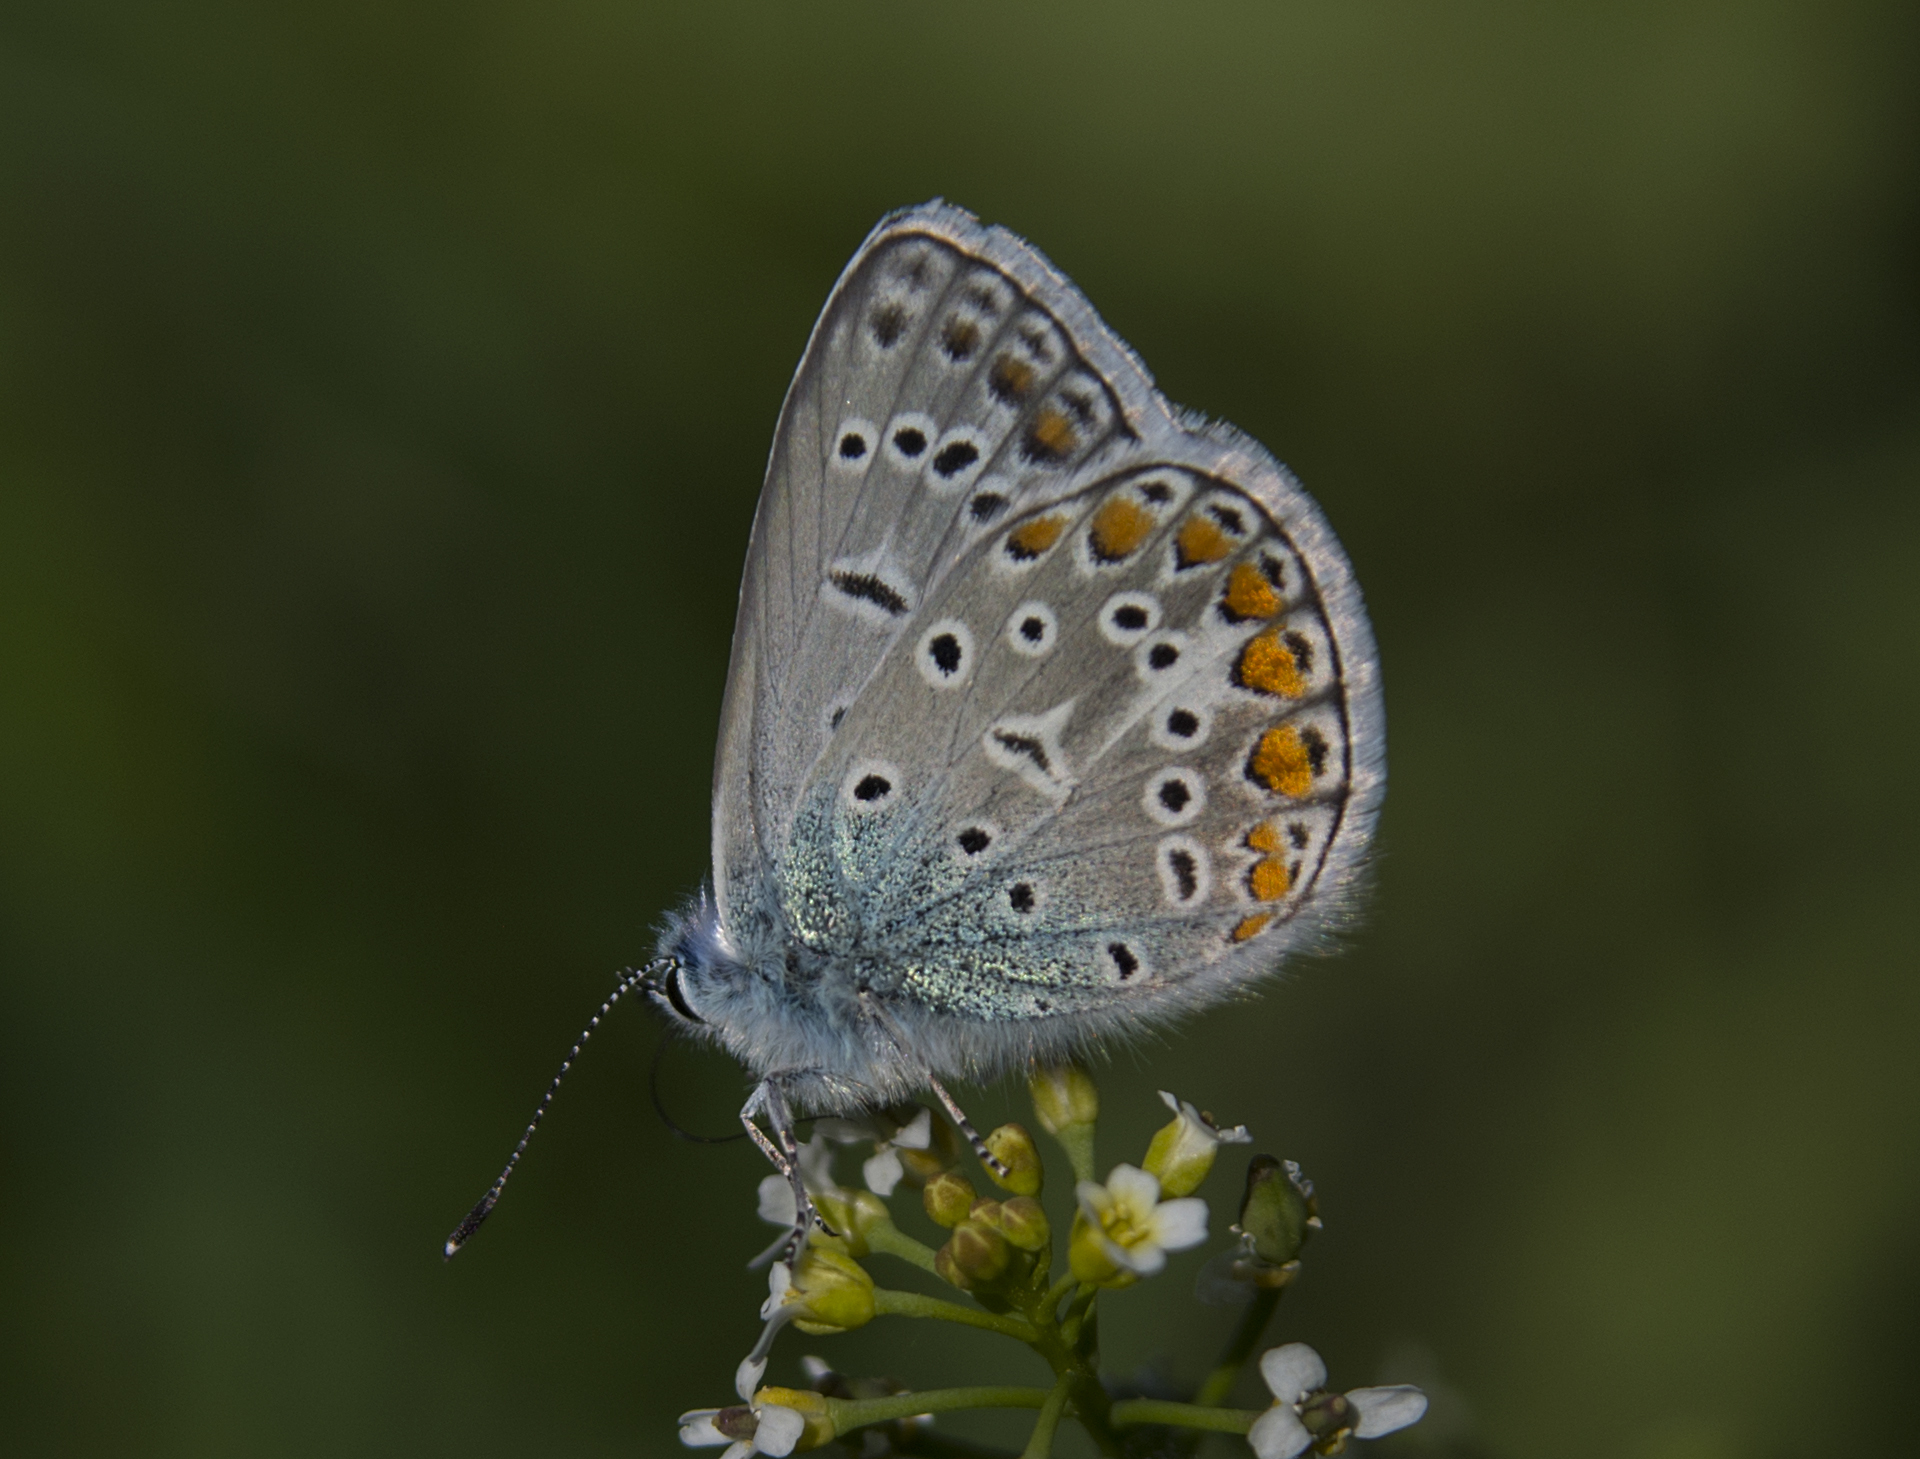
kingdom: Animalia
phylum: Arthropoda
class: Insecta
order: Lepidoptera
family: Lycaenidae
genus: Polyommatus
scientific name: Polyommatus icarus
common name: Common blue
